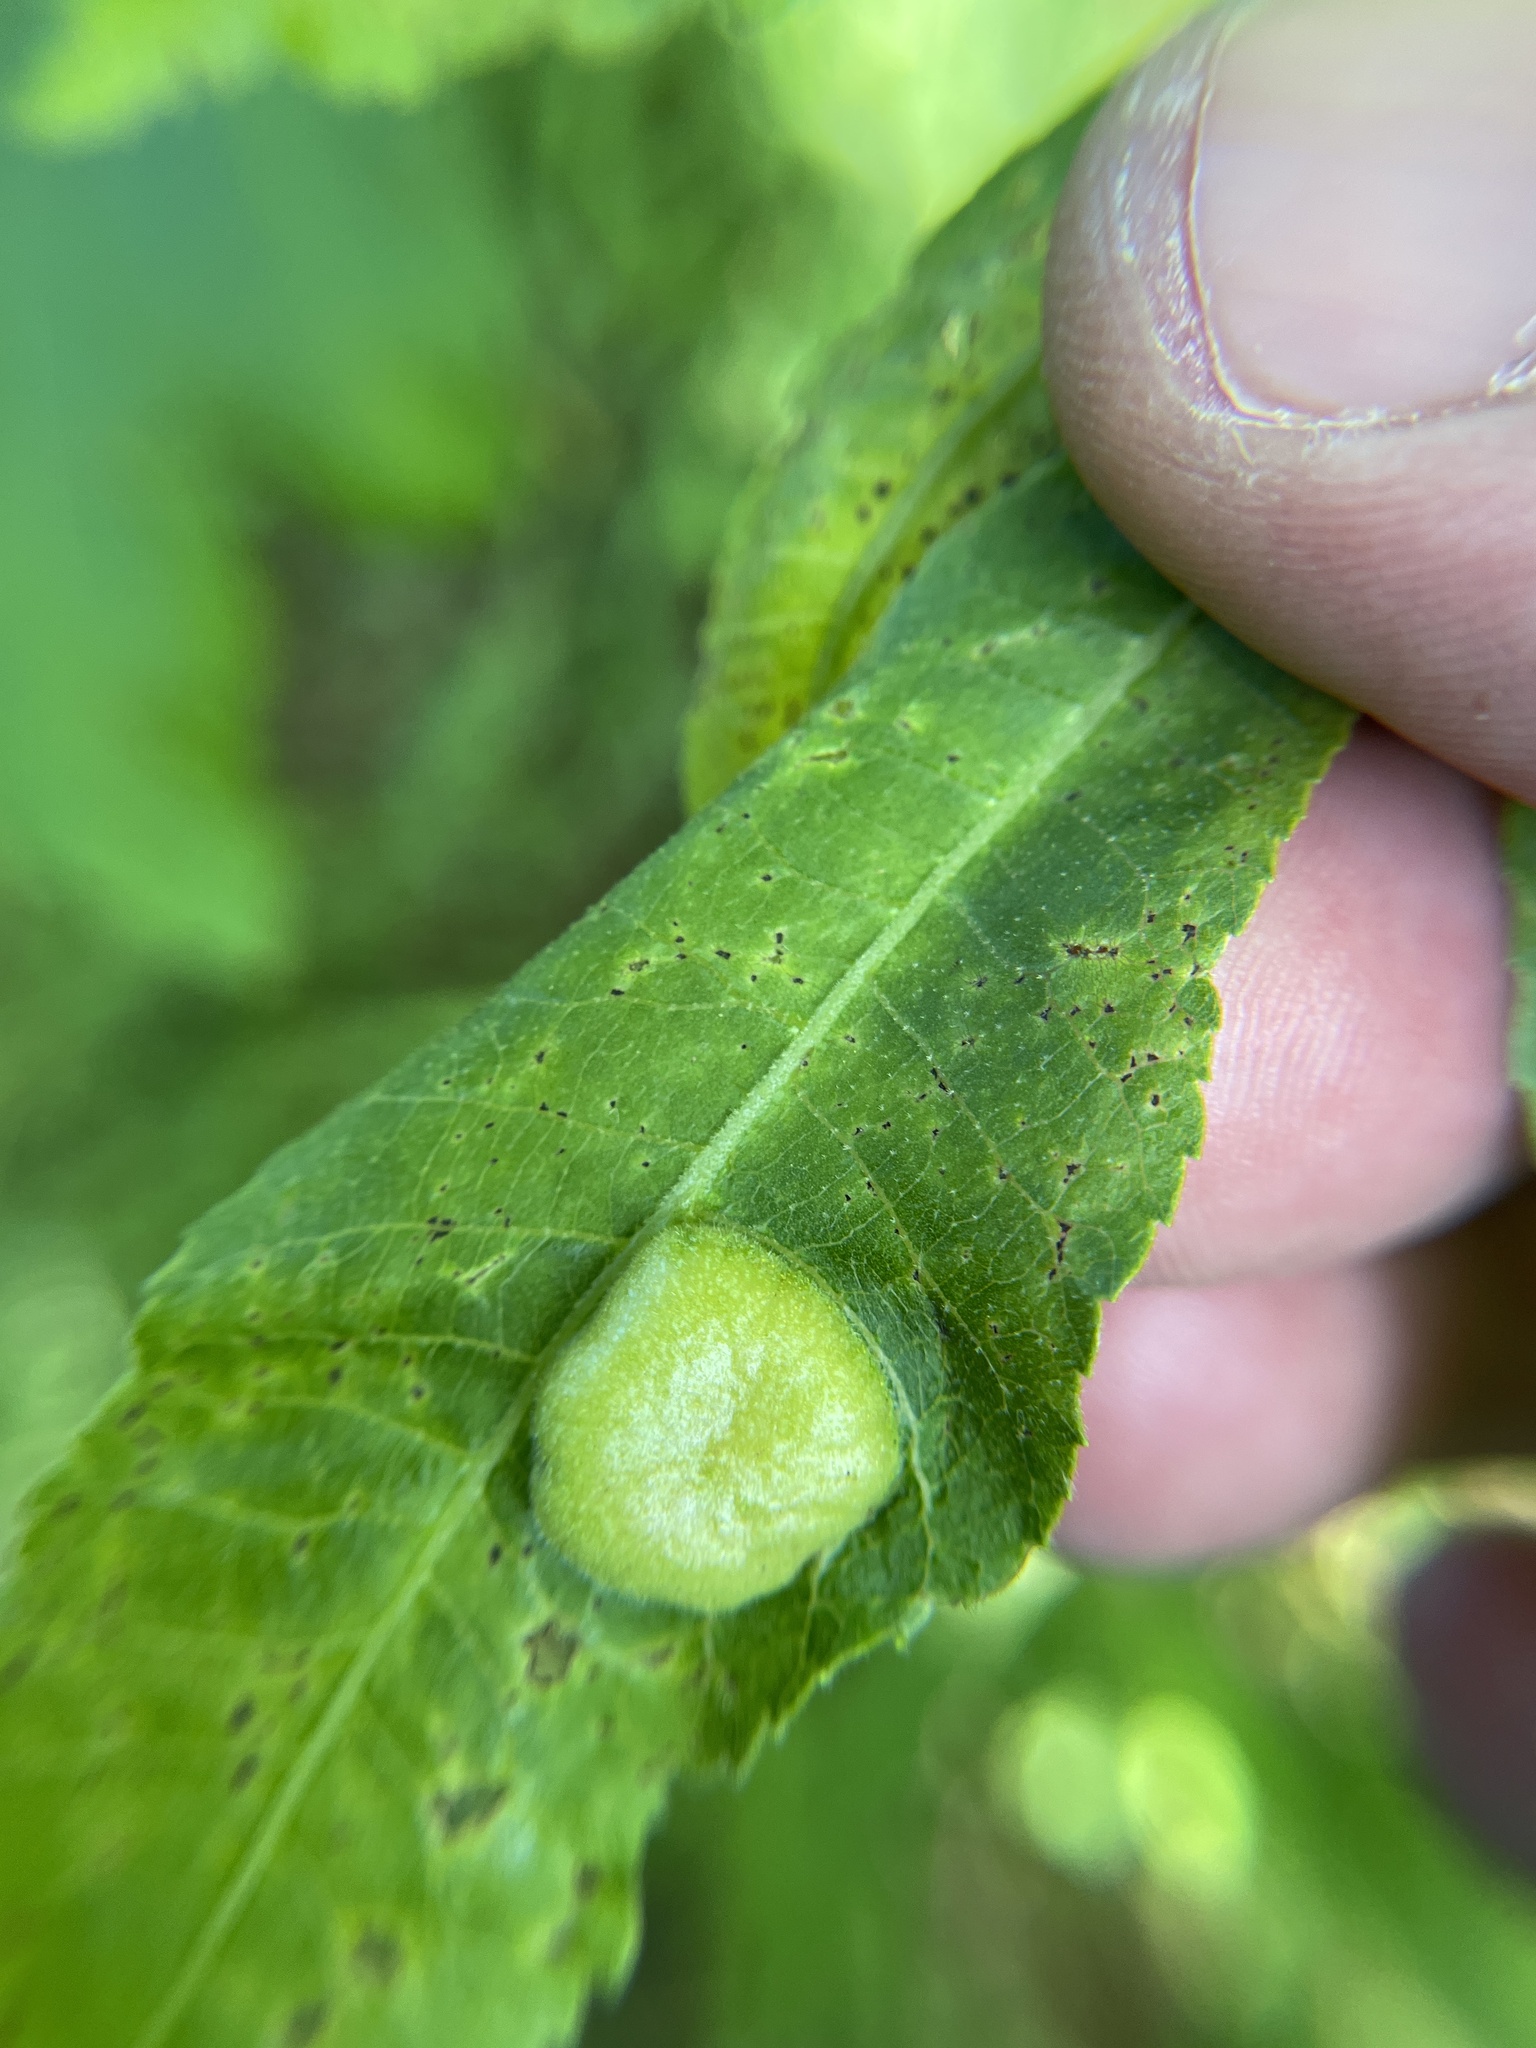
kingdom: Animalia
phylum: Arthropoda
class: Insecta
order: Hemiptera
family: Phylloxeridae
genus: Daktulosphaira
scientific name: Daktulosphaira notabilis
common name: Pecan leaf phylloxera
